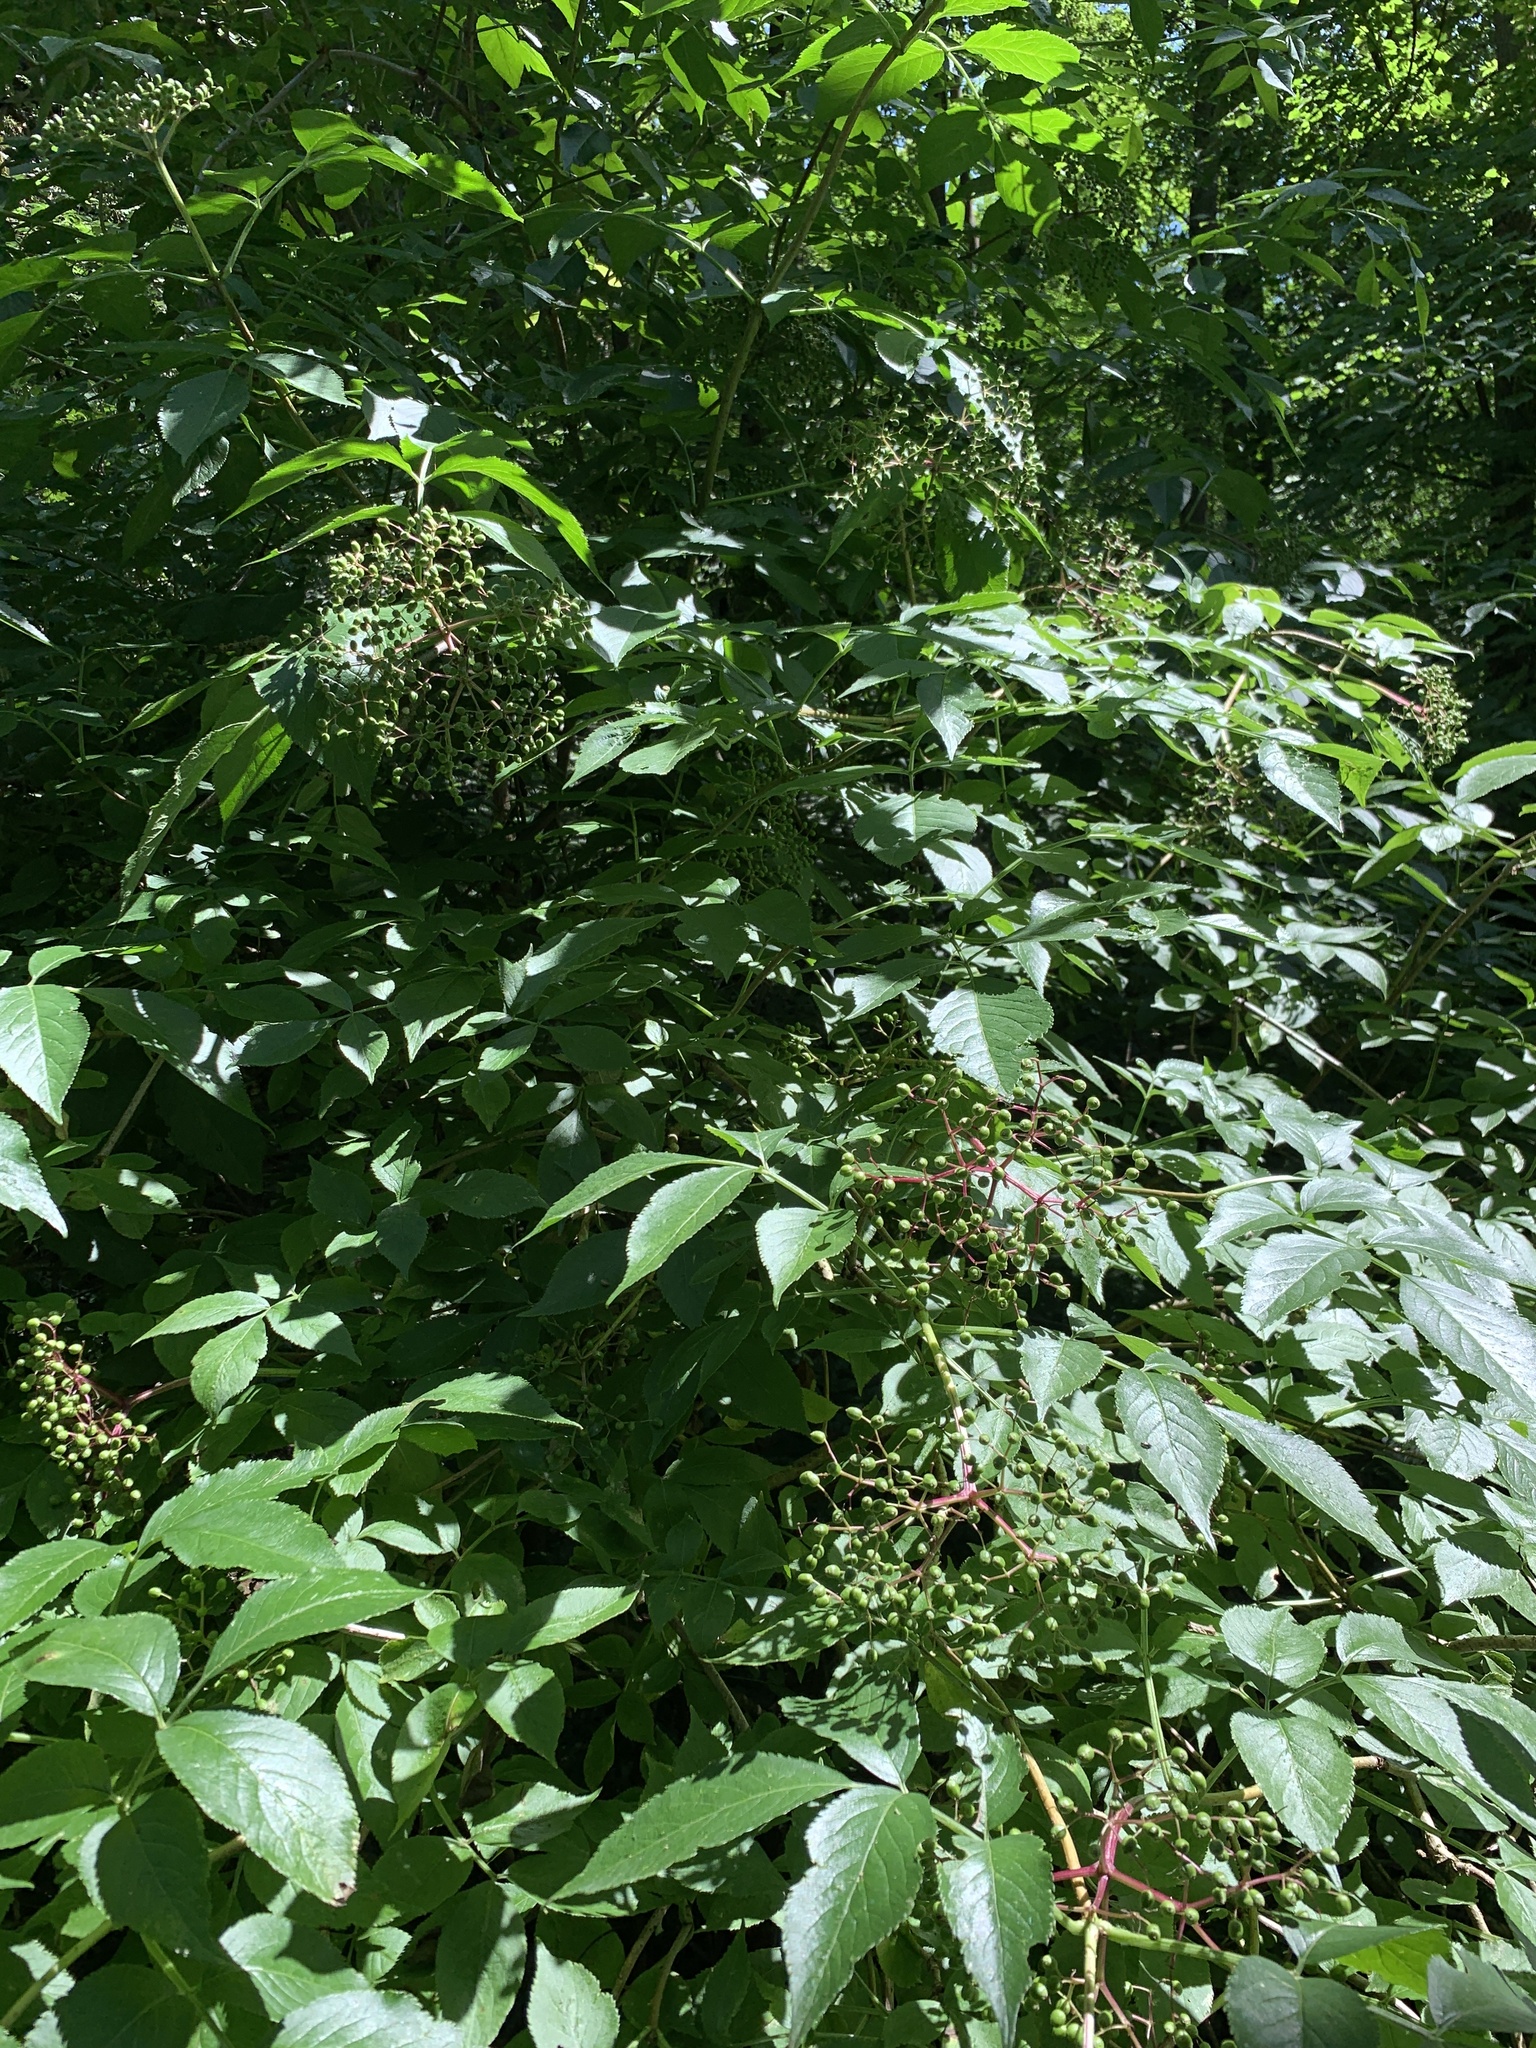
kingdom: Plantae
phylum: Tracheophyta
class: Magnoliopsida
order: Dipsacales
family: Viburnaceae
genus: Sambucus
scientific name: Sambucus nigra
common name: Elder
